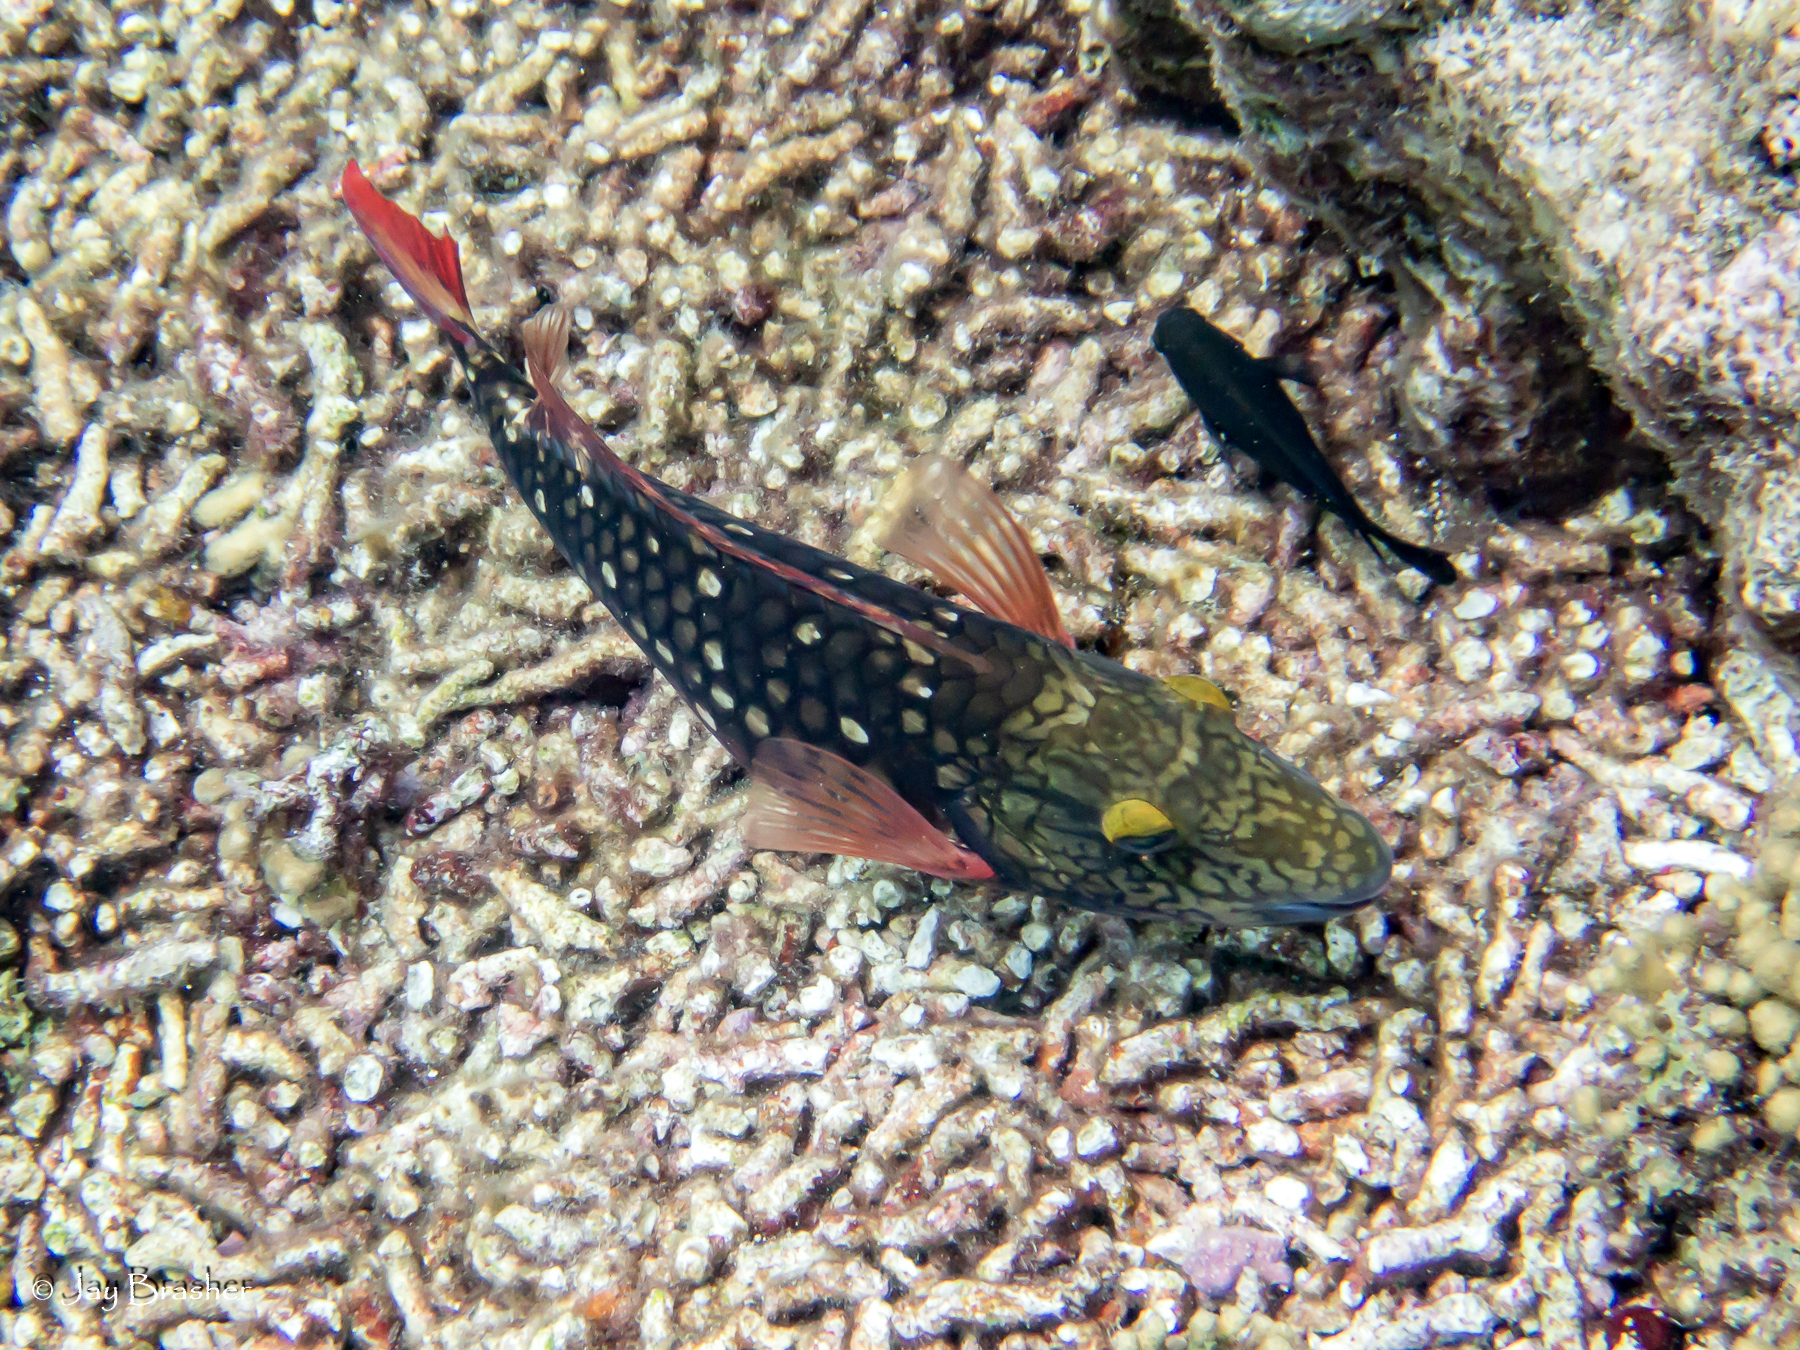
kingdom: Animalia
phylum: Chordata
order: Perciformes
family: Scaridae
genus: Sparisoma
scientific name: Sparisoma viride
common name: Stoplight parrotfish
